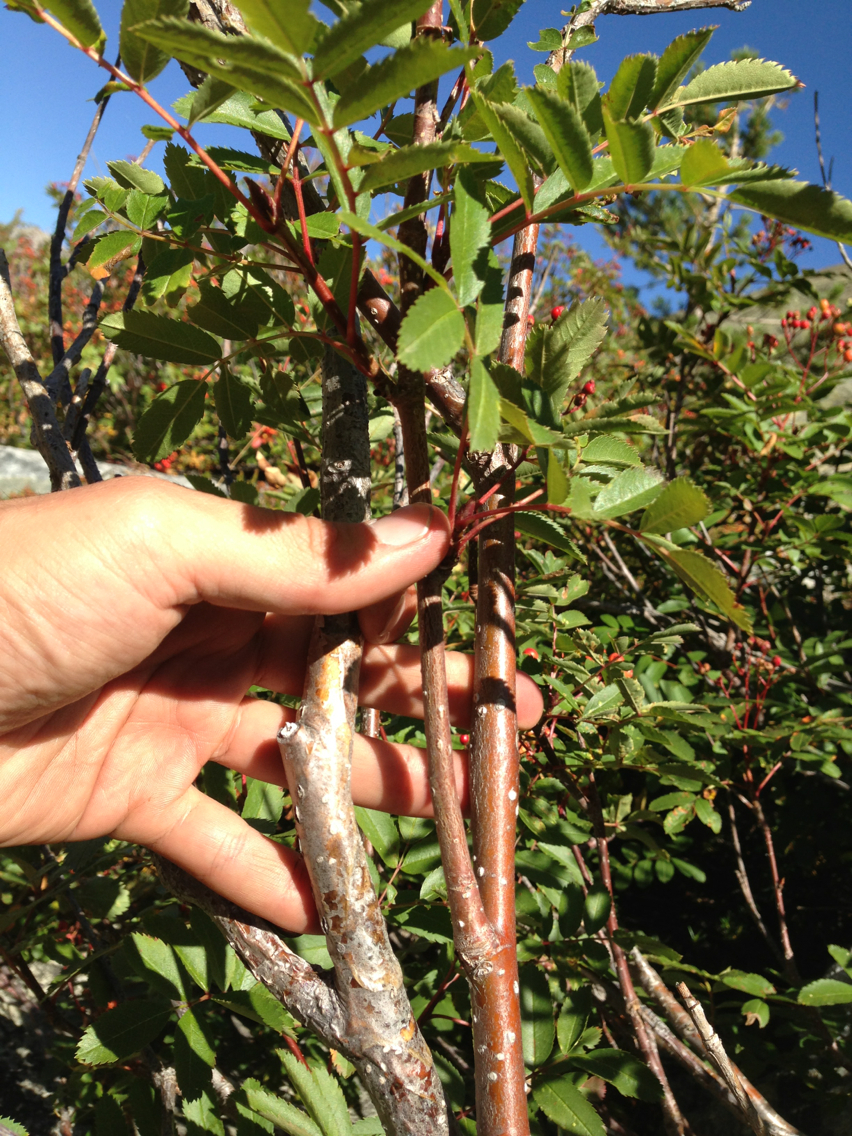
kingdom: Plantae
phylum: Tracheophyta
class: Magnoliopsida
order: Rosales
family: Rosaceae
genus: Sorbus
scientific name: Sorbus californica
